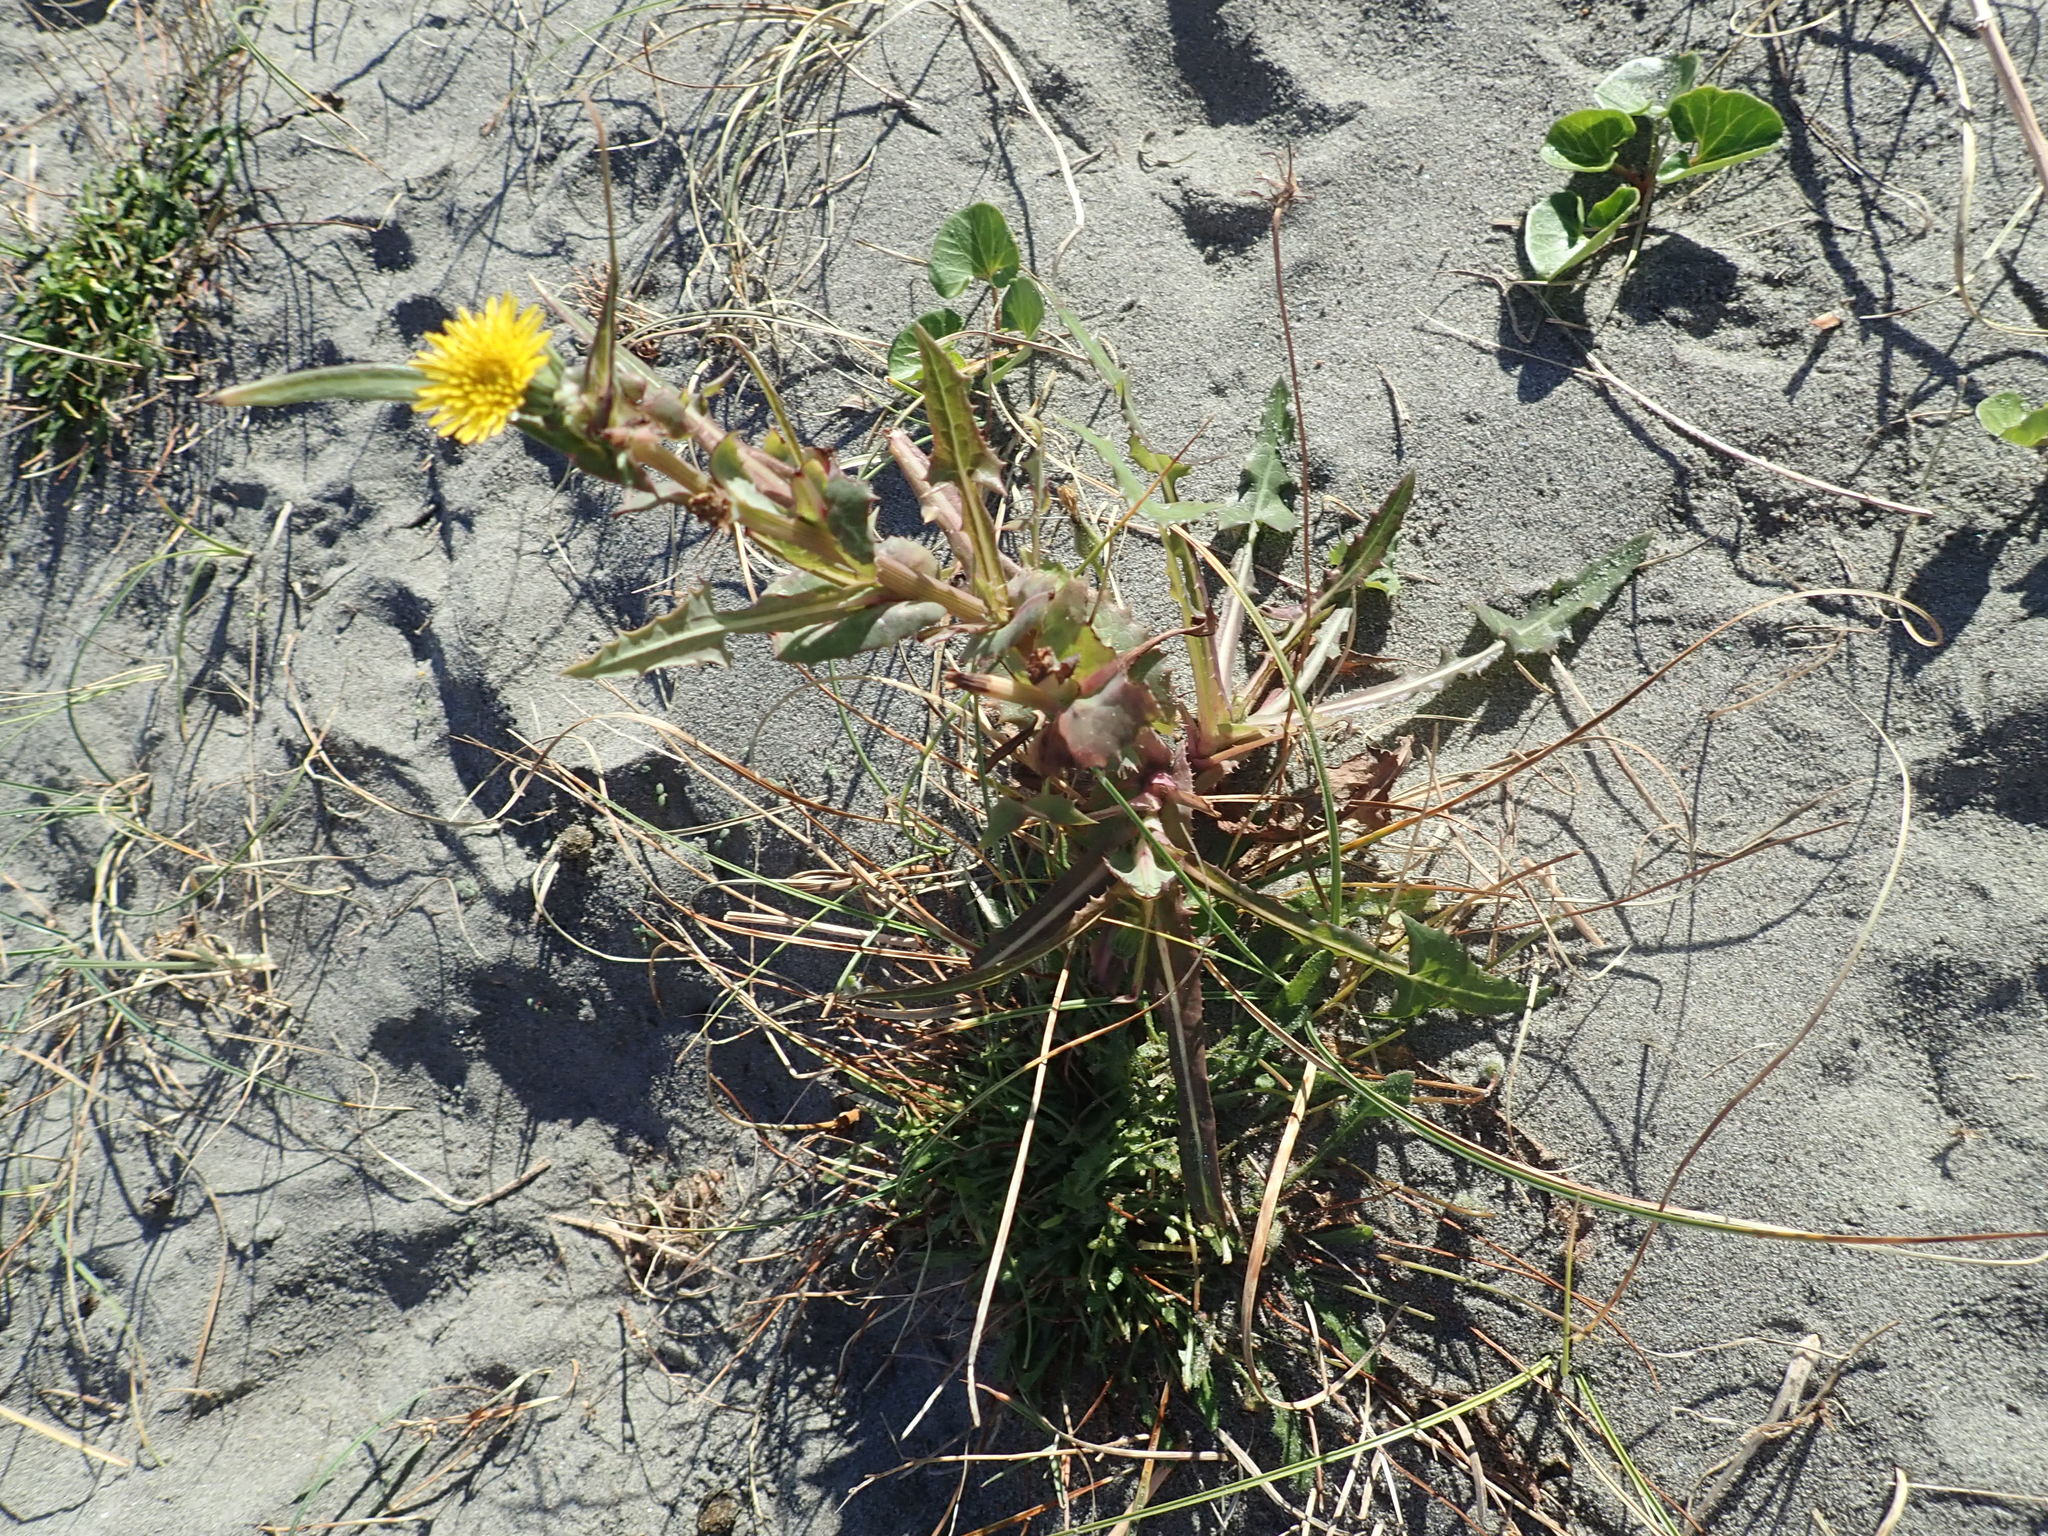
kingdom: Plantae
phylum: Tracheophyta
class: Magnoliopsida
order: Asterales
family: Asteraceae
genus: Sonchus
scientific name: Sonchus oleraceus
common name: Common sowthistle
